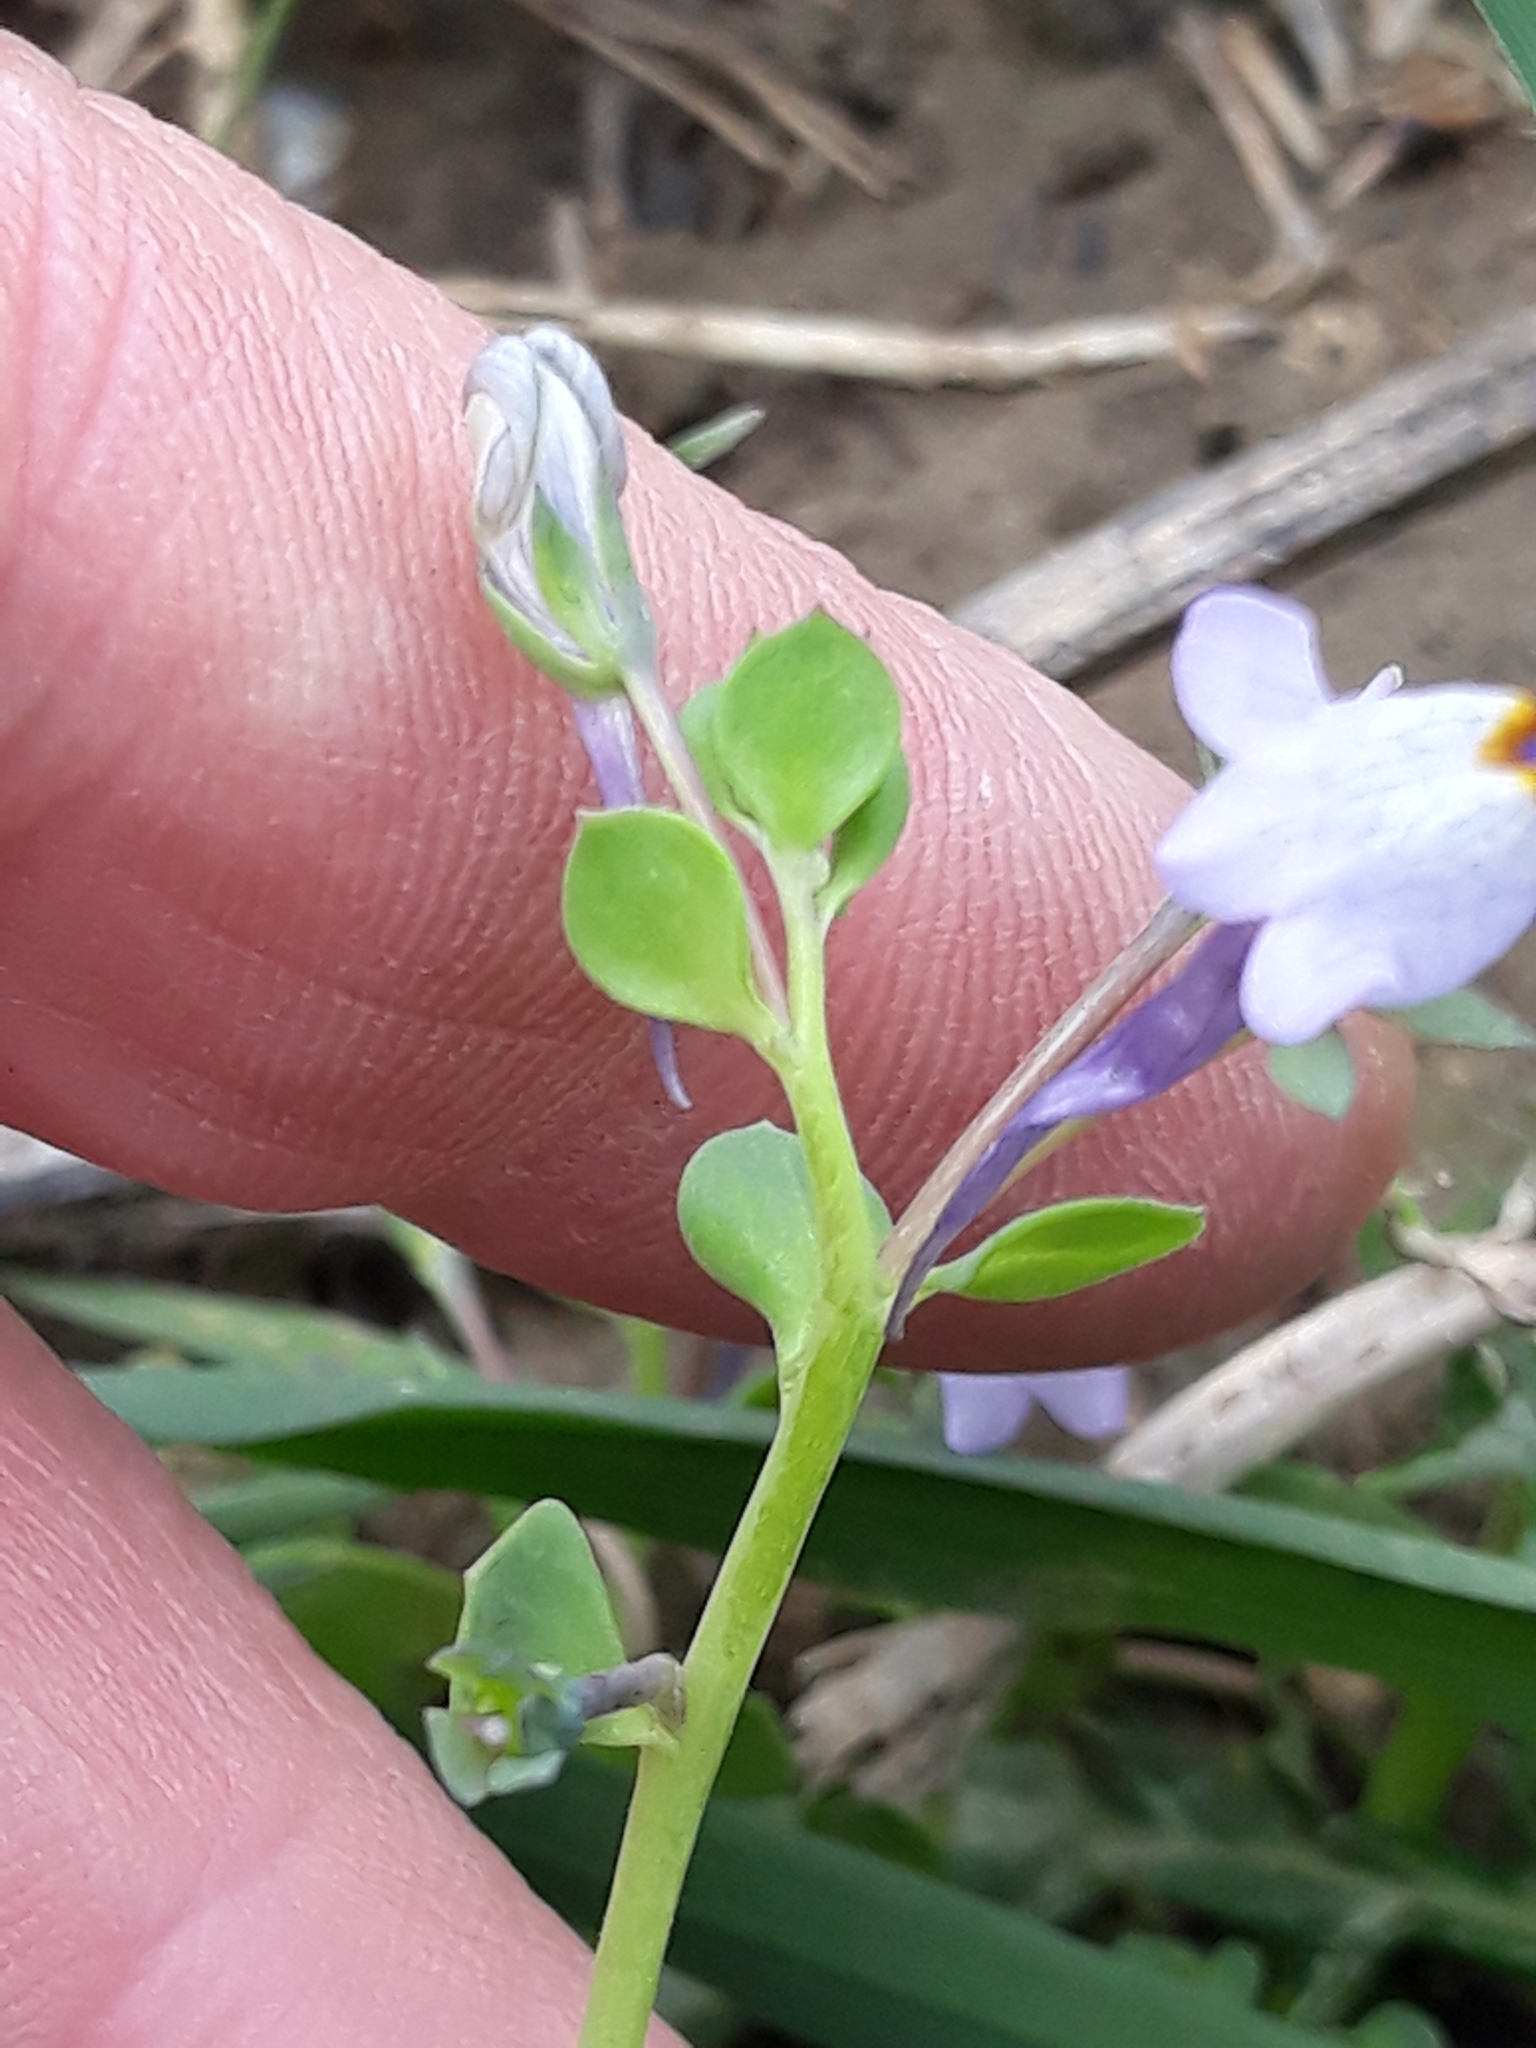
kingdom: Plantae
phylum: Tracheophyta
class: Magnoliopsida
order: Lamiales
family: Plantaginaceae
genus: Linaria
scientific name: Linaria reflexa
